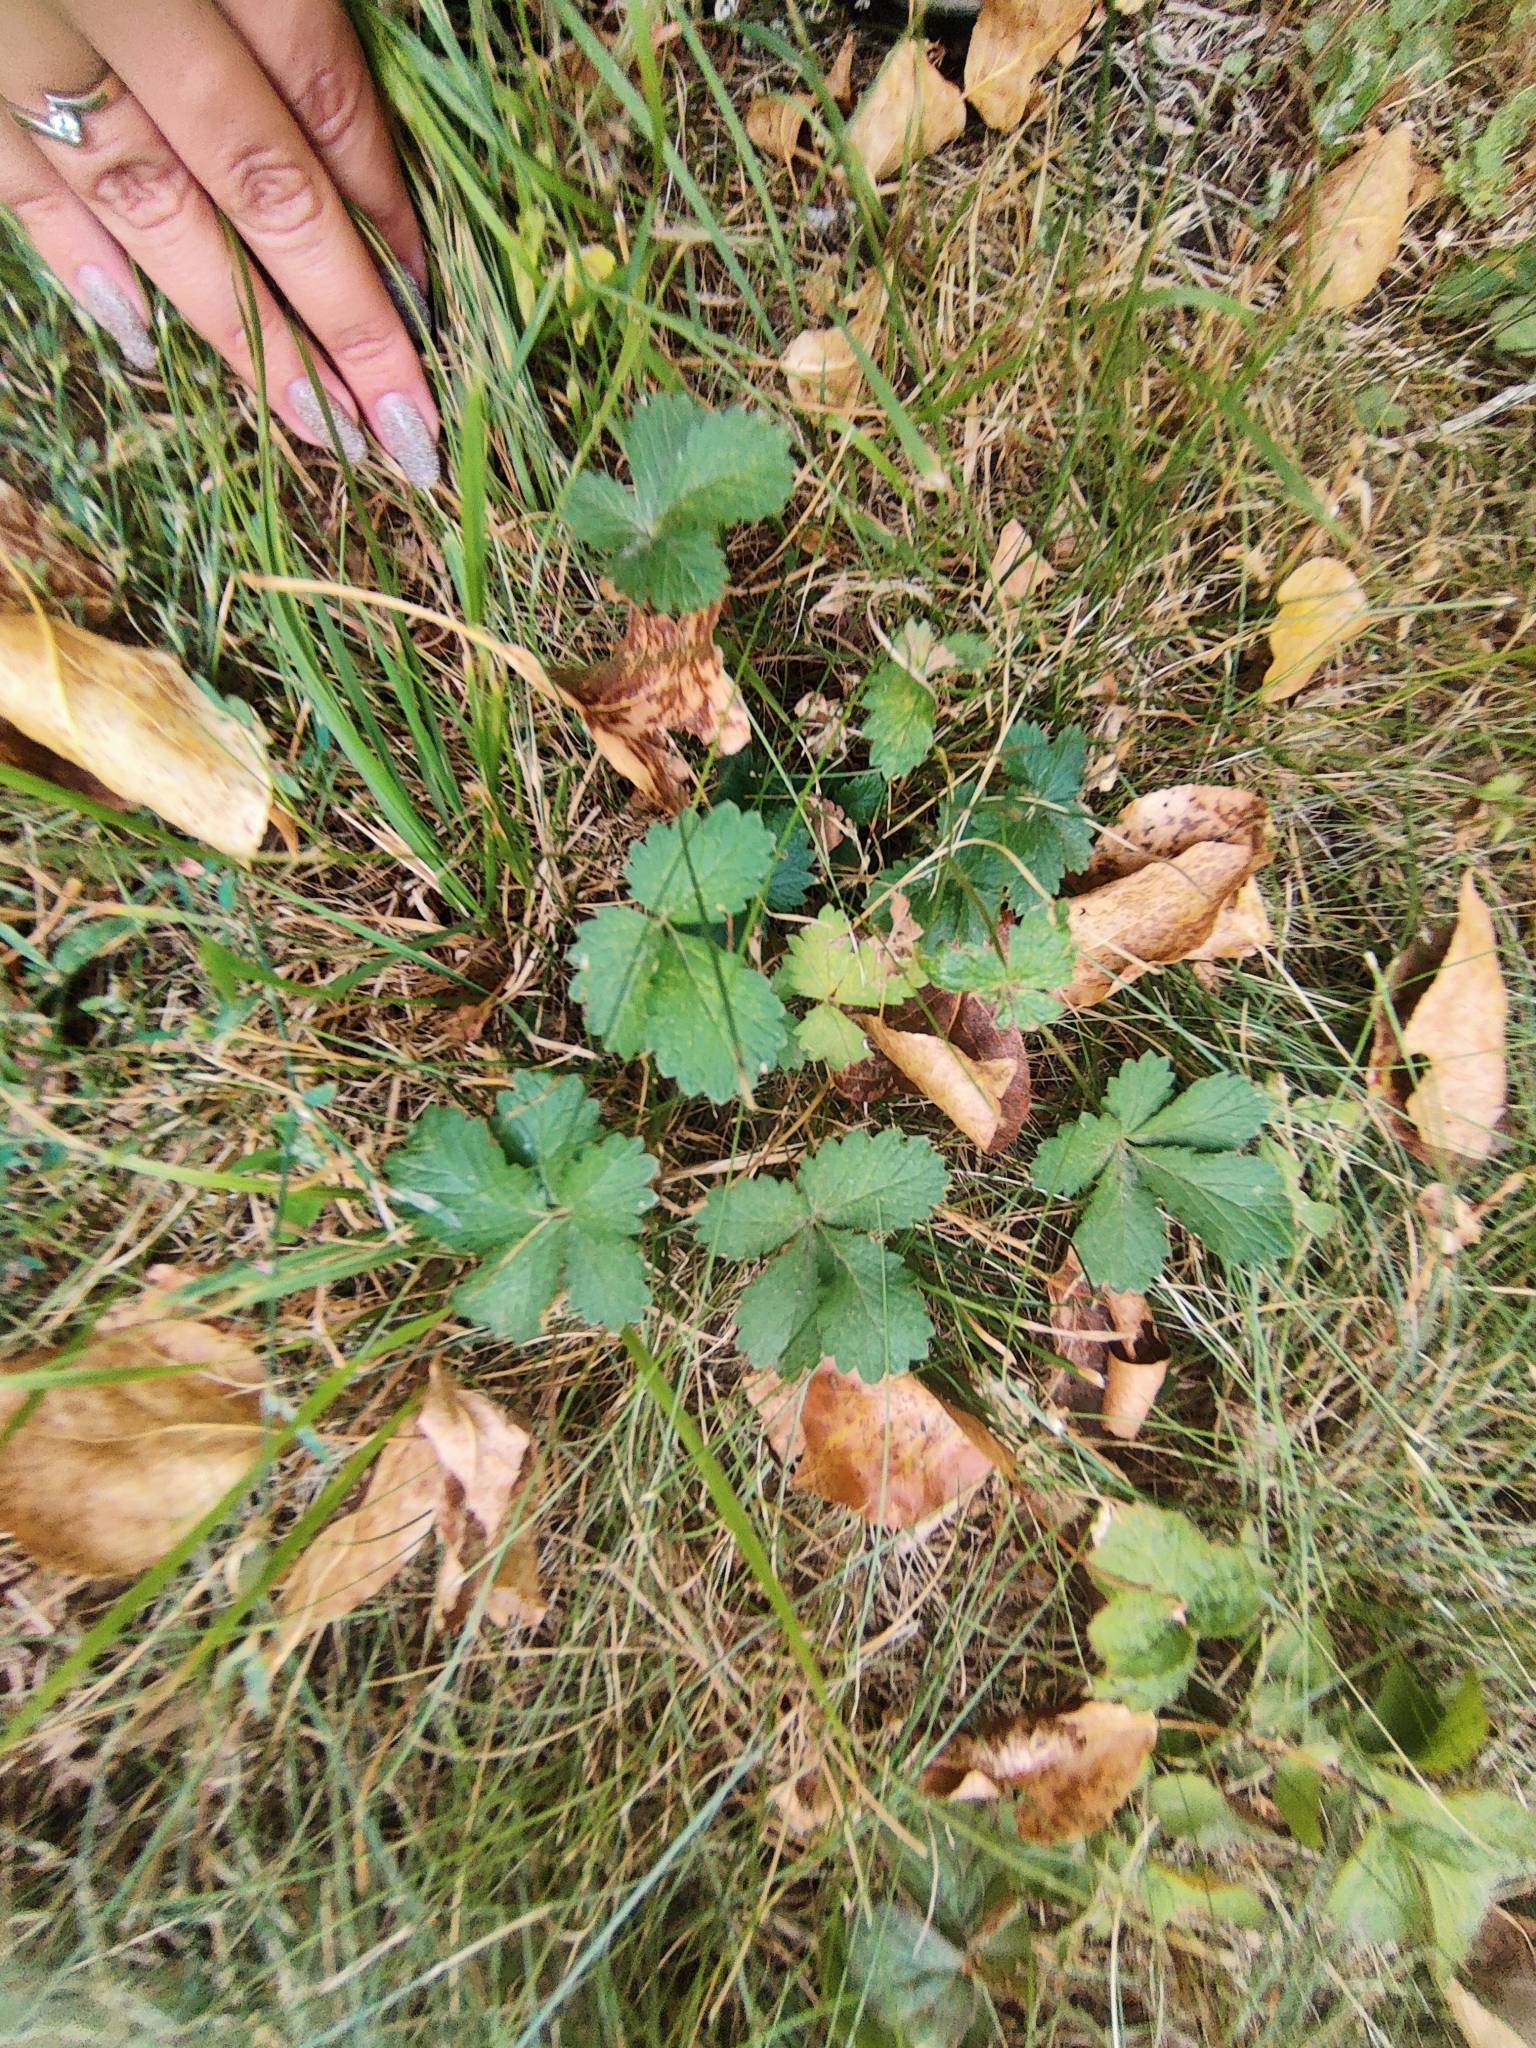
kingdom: Plantae
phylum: Tracheophyta
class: Magnoliopsida
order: Rosales
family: Rosaceae
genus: Potentilla
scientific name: Potentilla intermedia
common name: Downy cinquefoil
